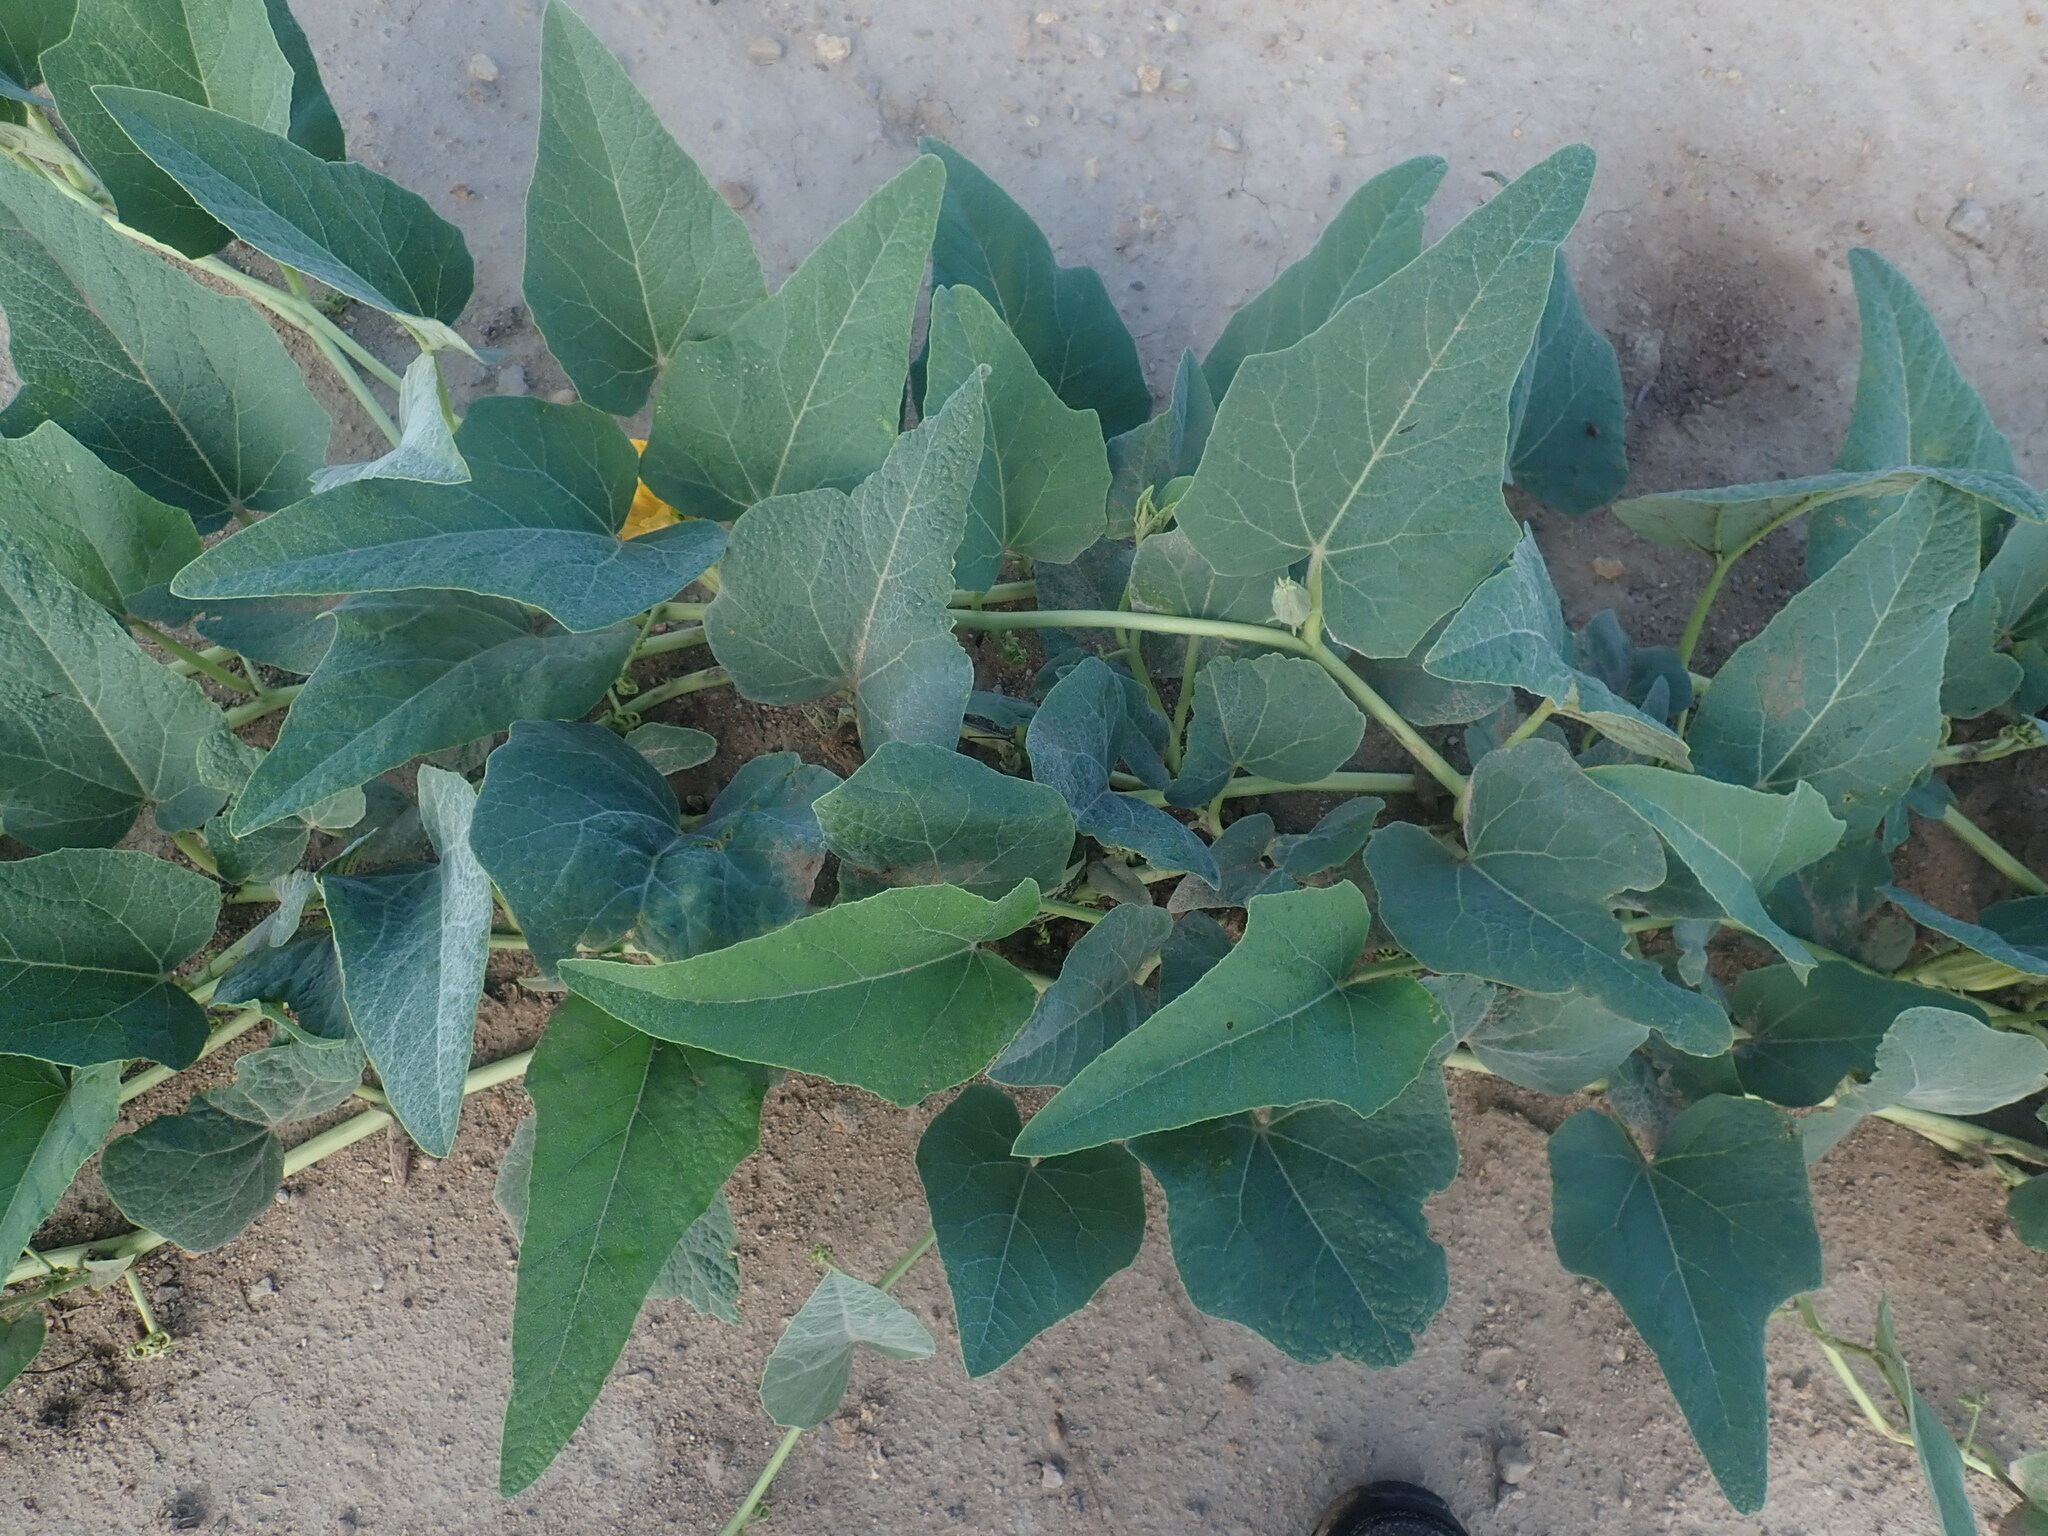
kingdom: Plantae
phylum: Tracheophyta
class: Magnoliopsida
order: Cucurbitales
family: Cucurbitaceae
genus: Cucurbita
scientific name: Cucurbita foetidissima
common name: Buffalo gourd
